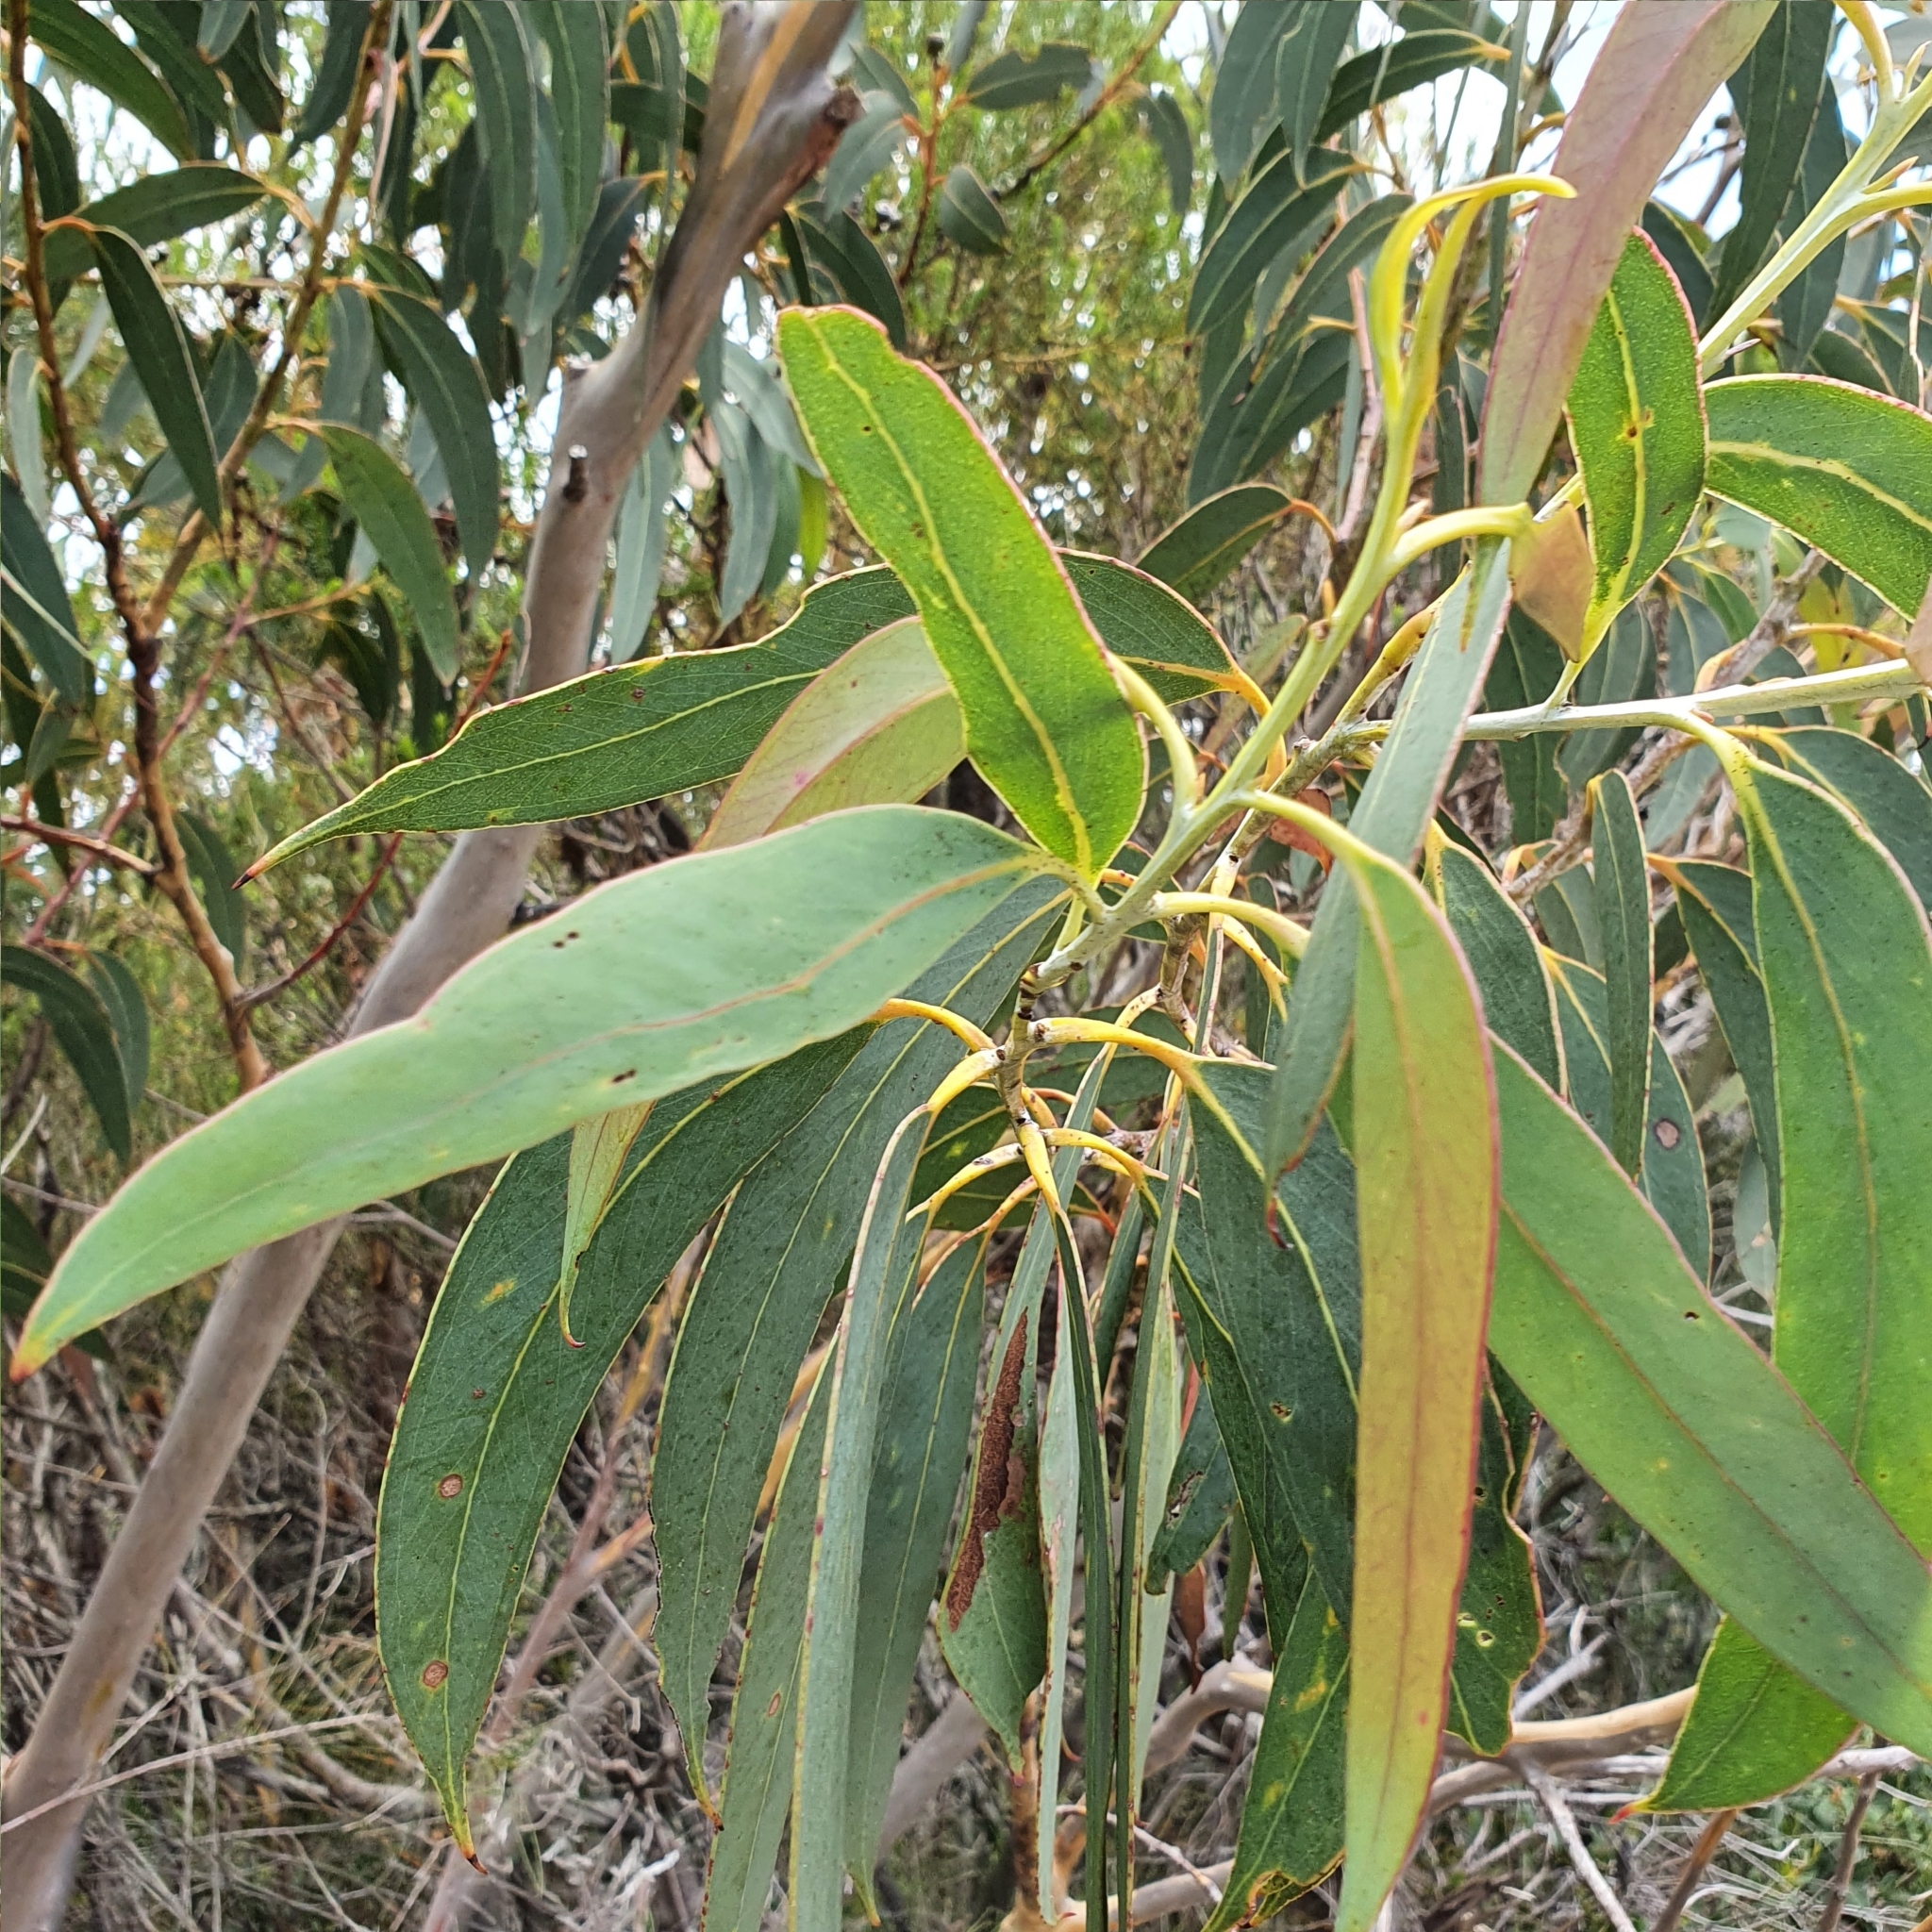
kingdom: Plantae
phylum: Tracheophyta
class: Magnoliopsida
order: Myrtales
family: Myrtaceae
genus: Eucalyptus
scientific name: Eucalyptus luehmanniana
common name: Yellow-top mallee ash
